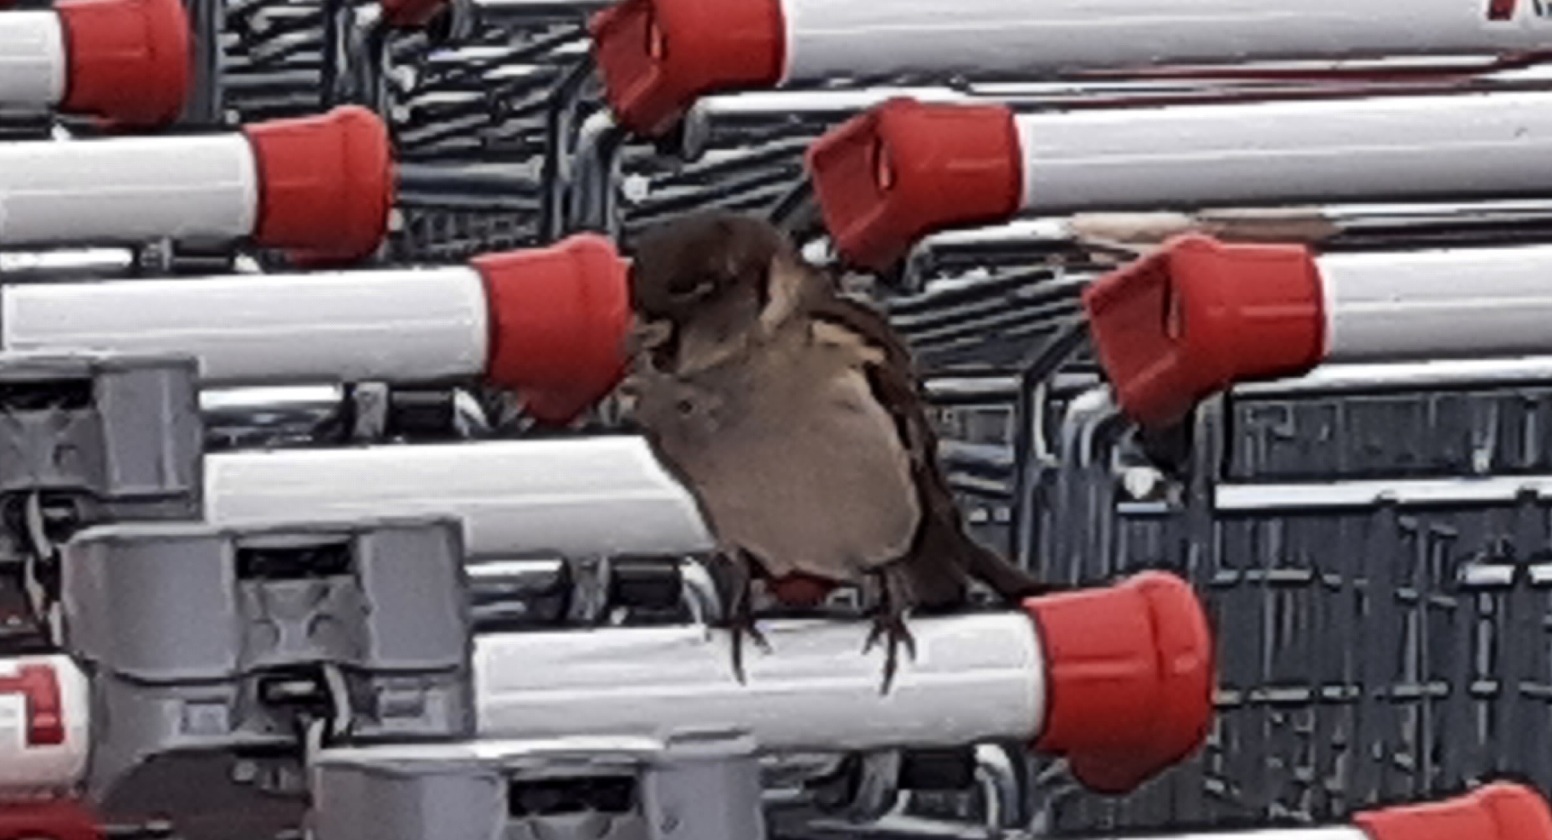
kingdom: Animalia
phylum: Chordata
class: Aves
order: Passeriformes
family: Passeridae
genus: Passer
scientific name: Passer domesticus
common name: House sparrow
